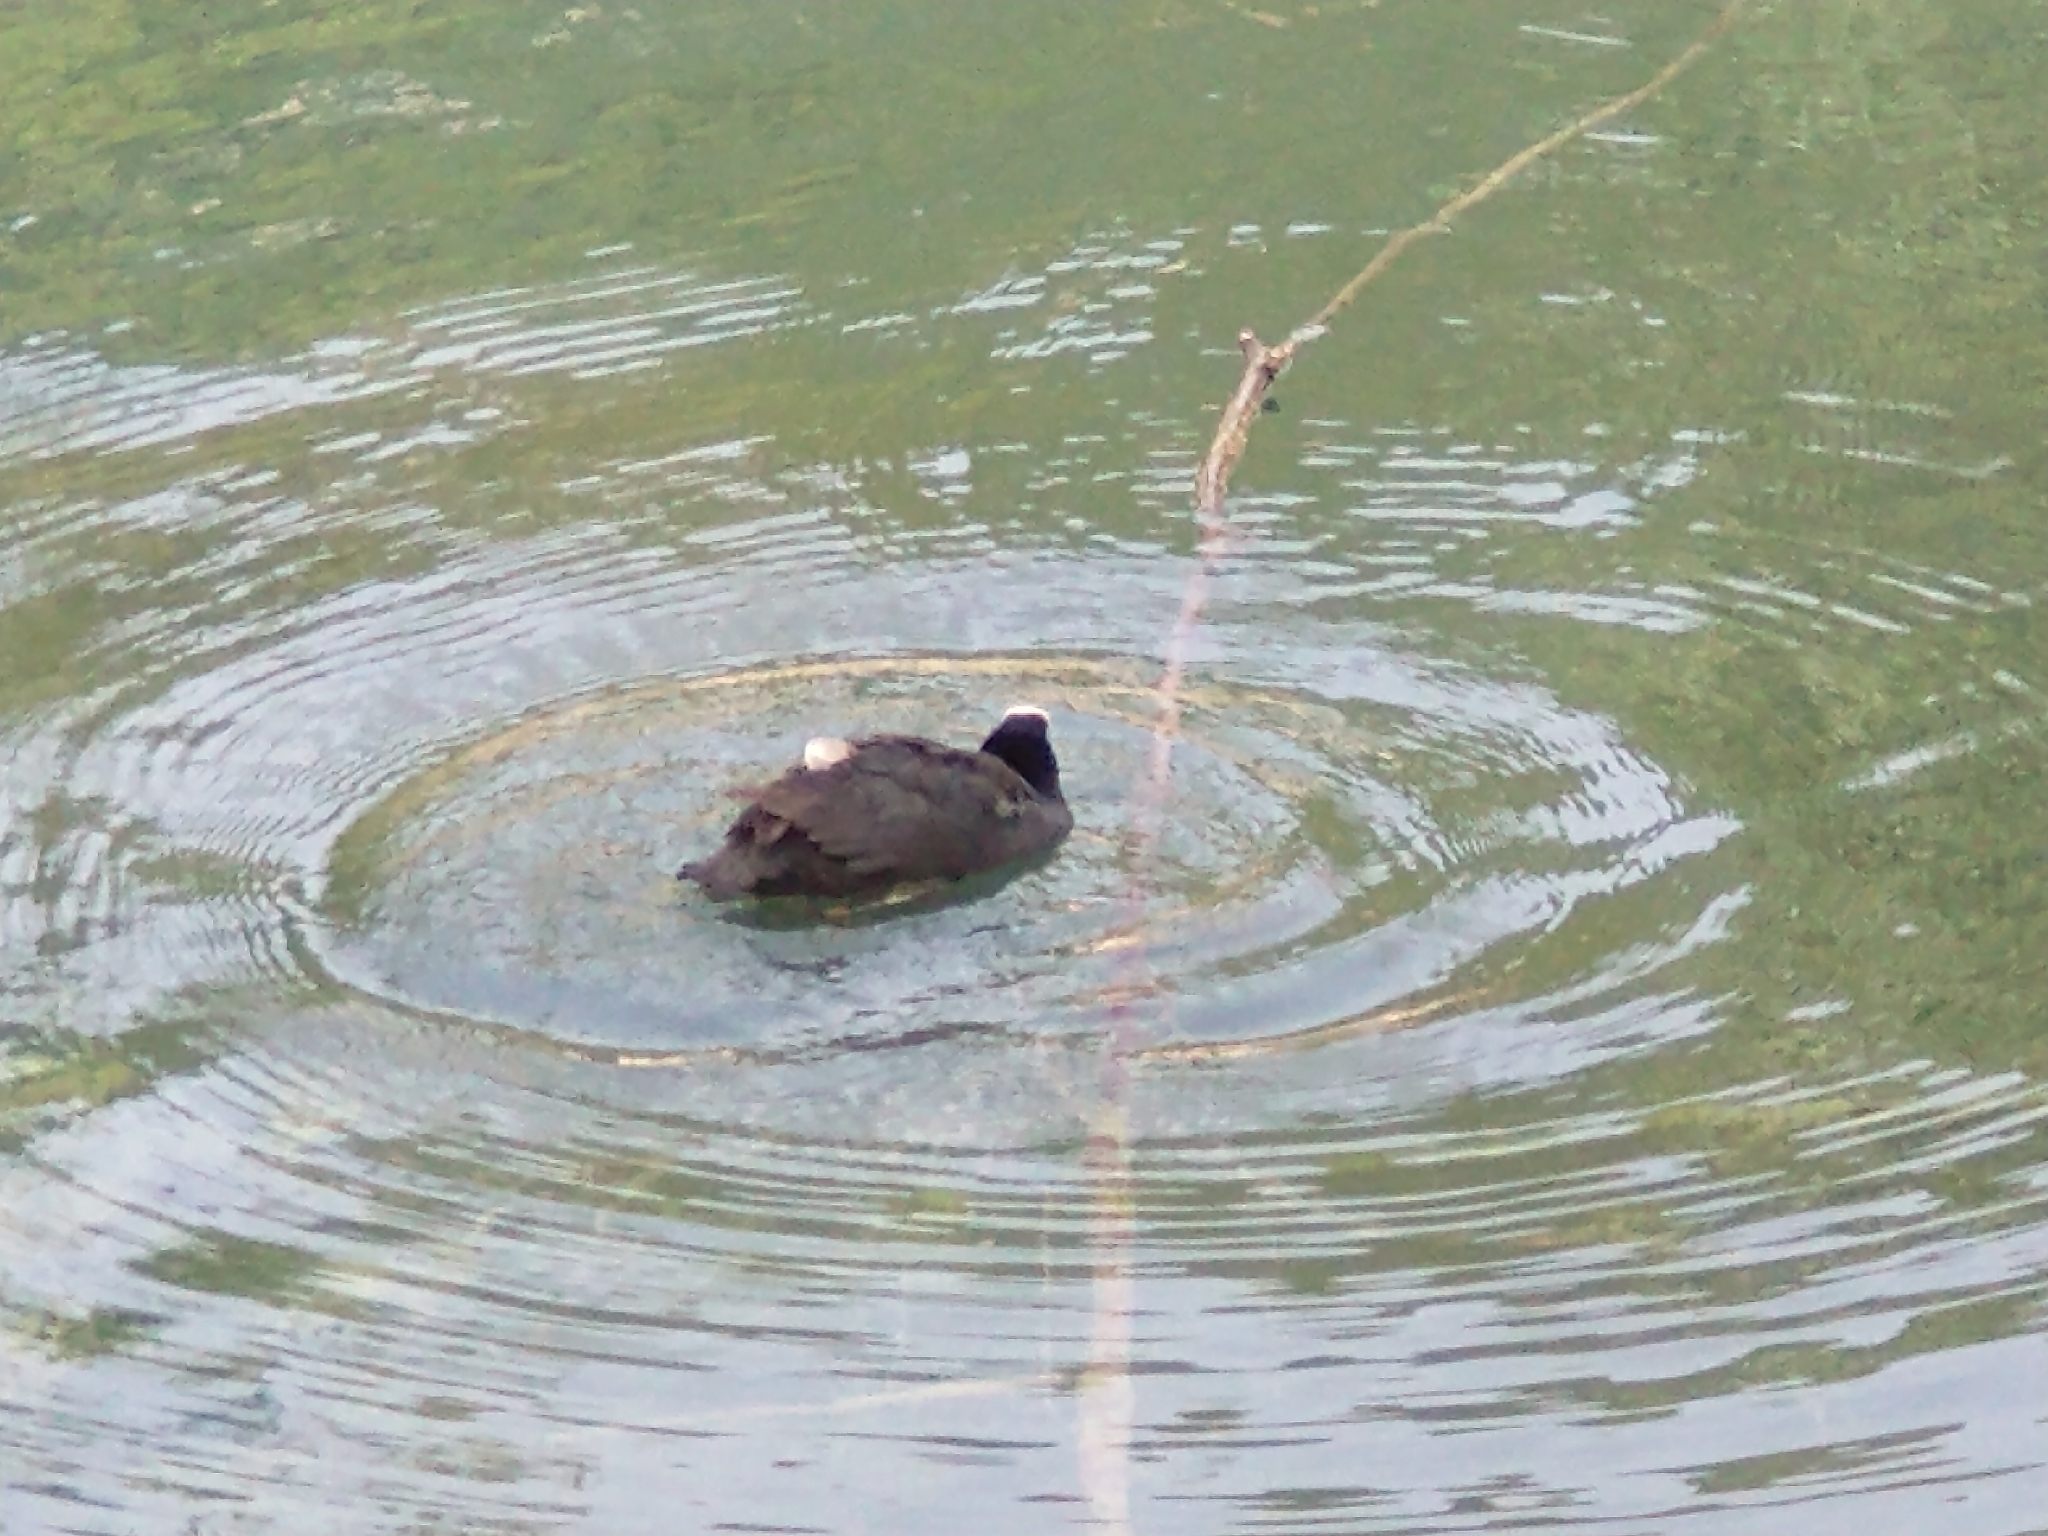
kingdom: Animalia
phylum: Chordata
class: Aves
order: Gruiformes
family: Rallidae
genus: Fulica
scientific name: Fulica atra
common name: Eurasian coot
